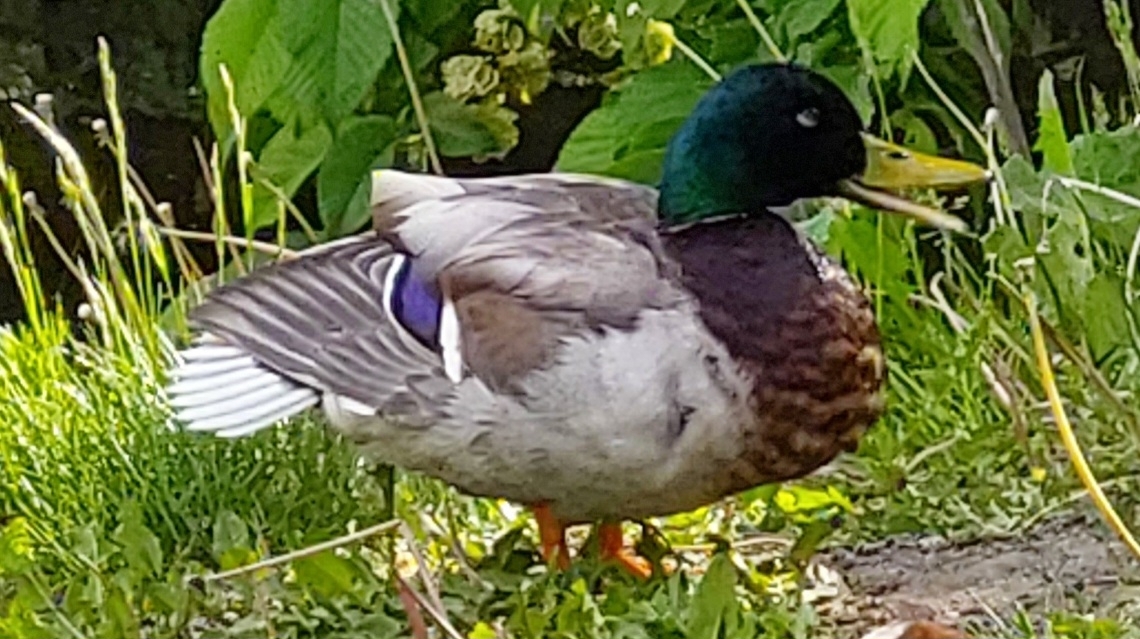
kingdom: Animalia
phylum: Chordata
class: Aves
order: Anseriformes
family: Anatidae
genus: Anas
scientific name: Anas platyrhynchos
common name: Mallard
